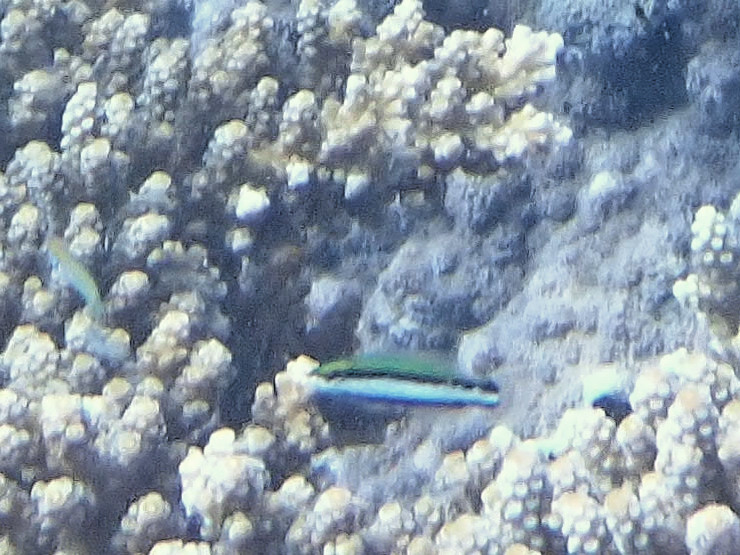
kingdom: Animalia
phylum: Chordata
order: Perciformes
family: Labridae
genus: Gomphosus
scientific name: Gomphosus varius
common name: Bird wrasse
